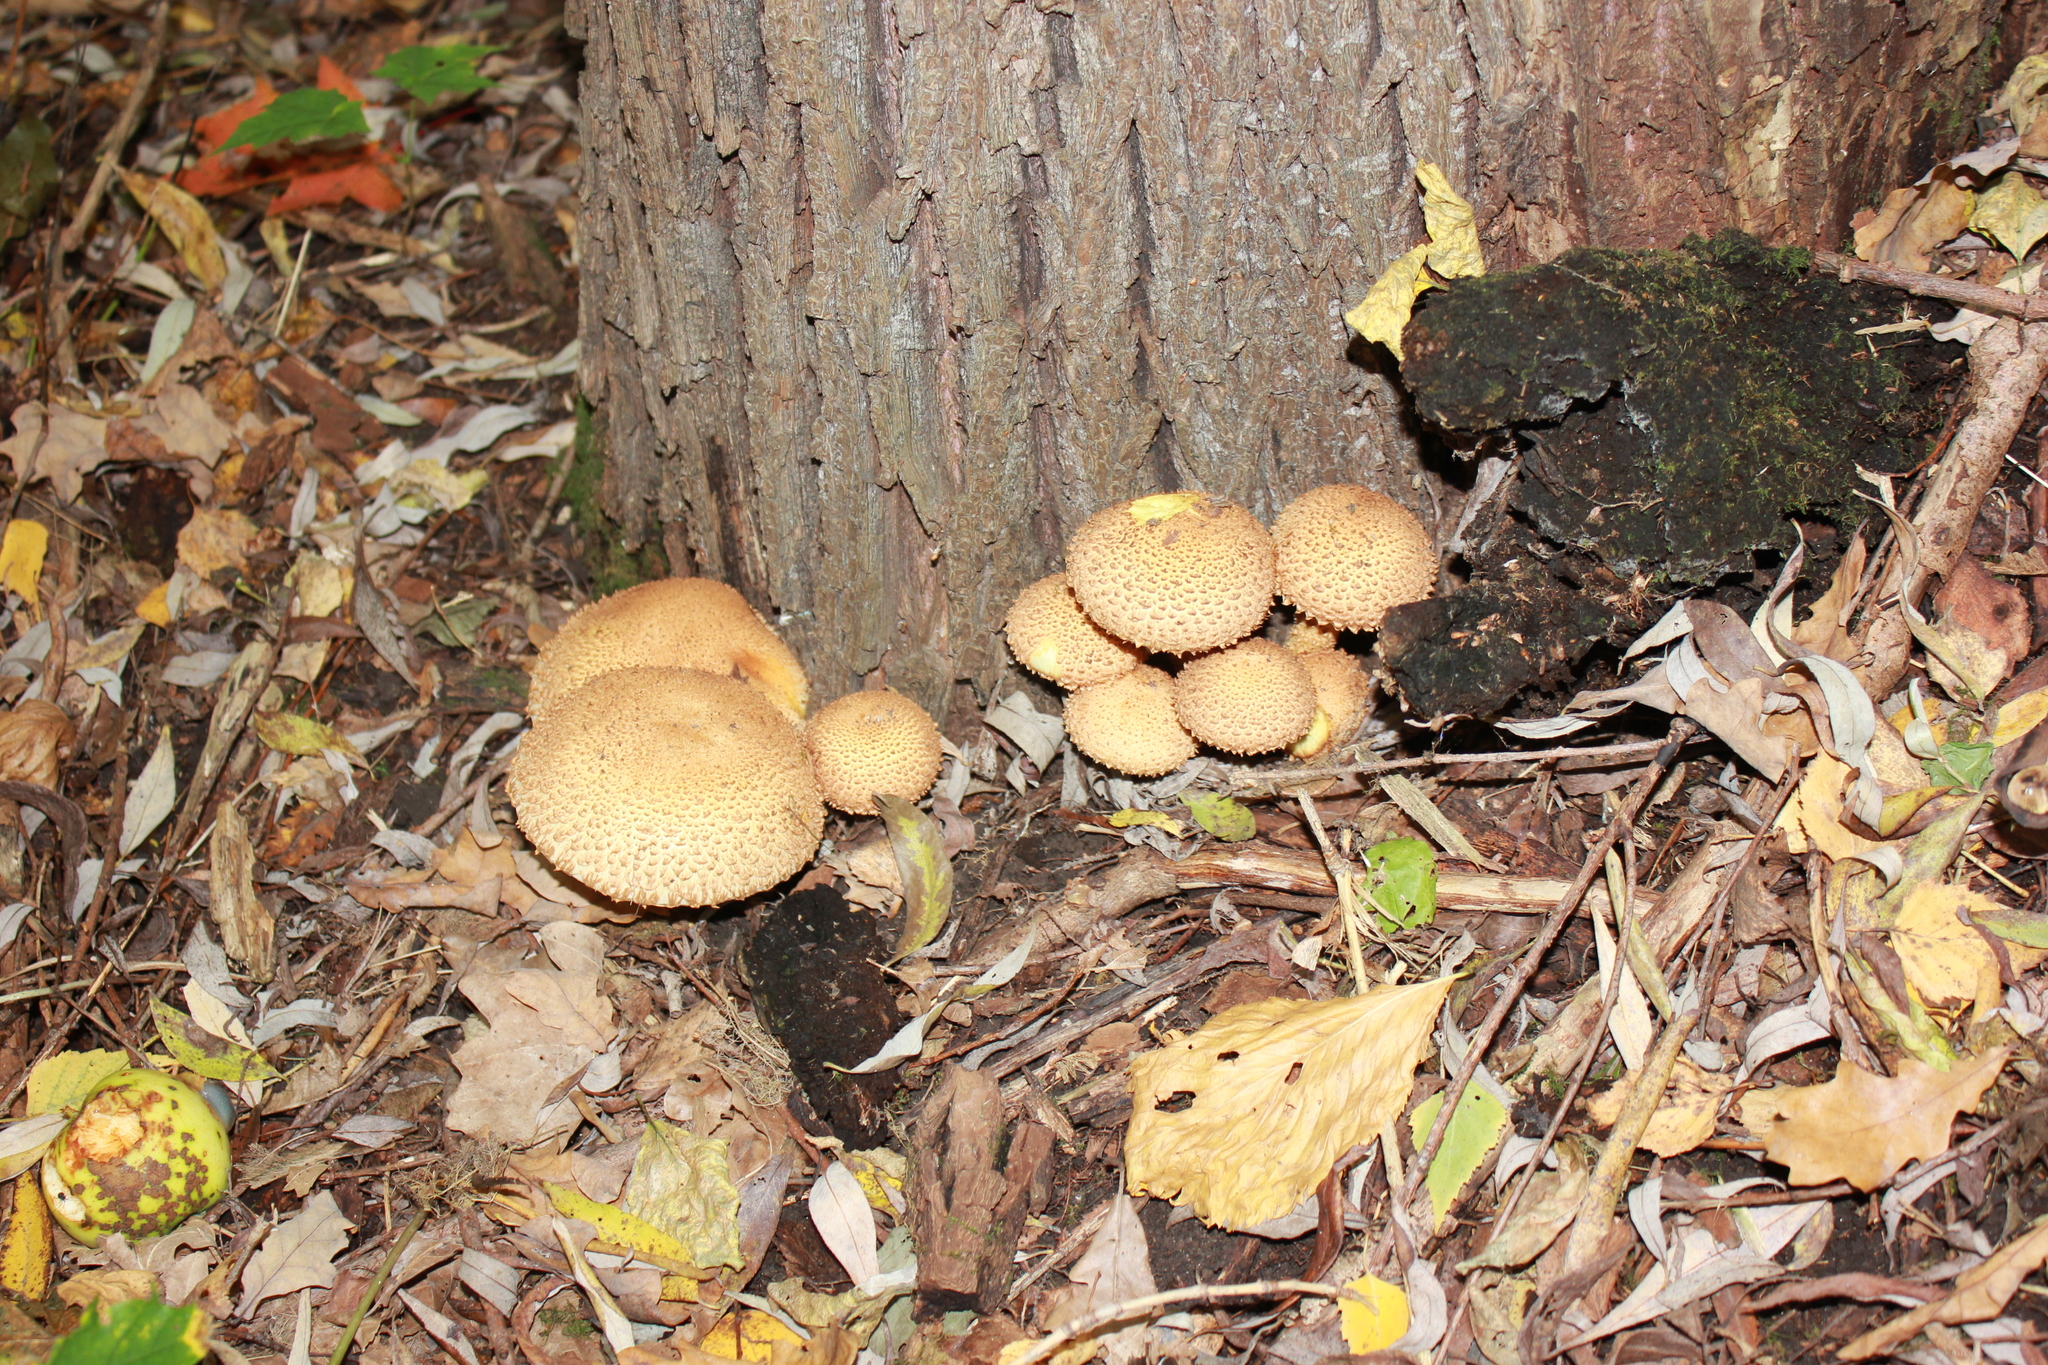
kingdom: Fungi
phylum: Basidiomycota
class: Agaricomycetes
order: Agaricales
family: Strophariaceae
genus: Pholiota
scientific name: Pholiota squarrosa
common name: Shaggy pholiota
